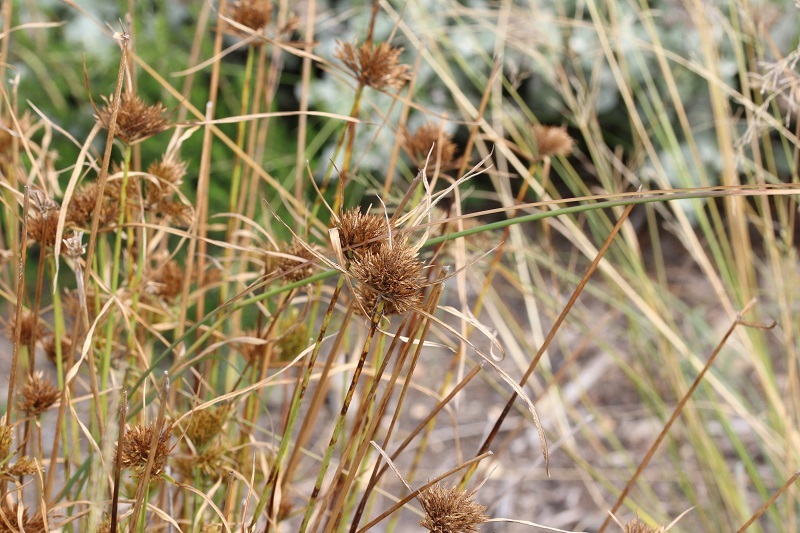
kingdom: Plantae
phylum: Tracheophyta
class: Liliopsida
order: Poales
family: Cyperaceae
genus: Cyperus
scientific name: Cyperus polystachyos
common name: Bunchy flat sedge
